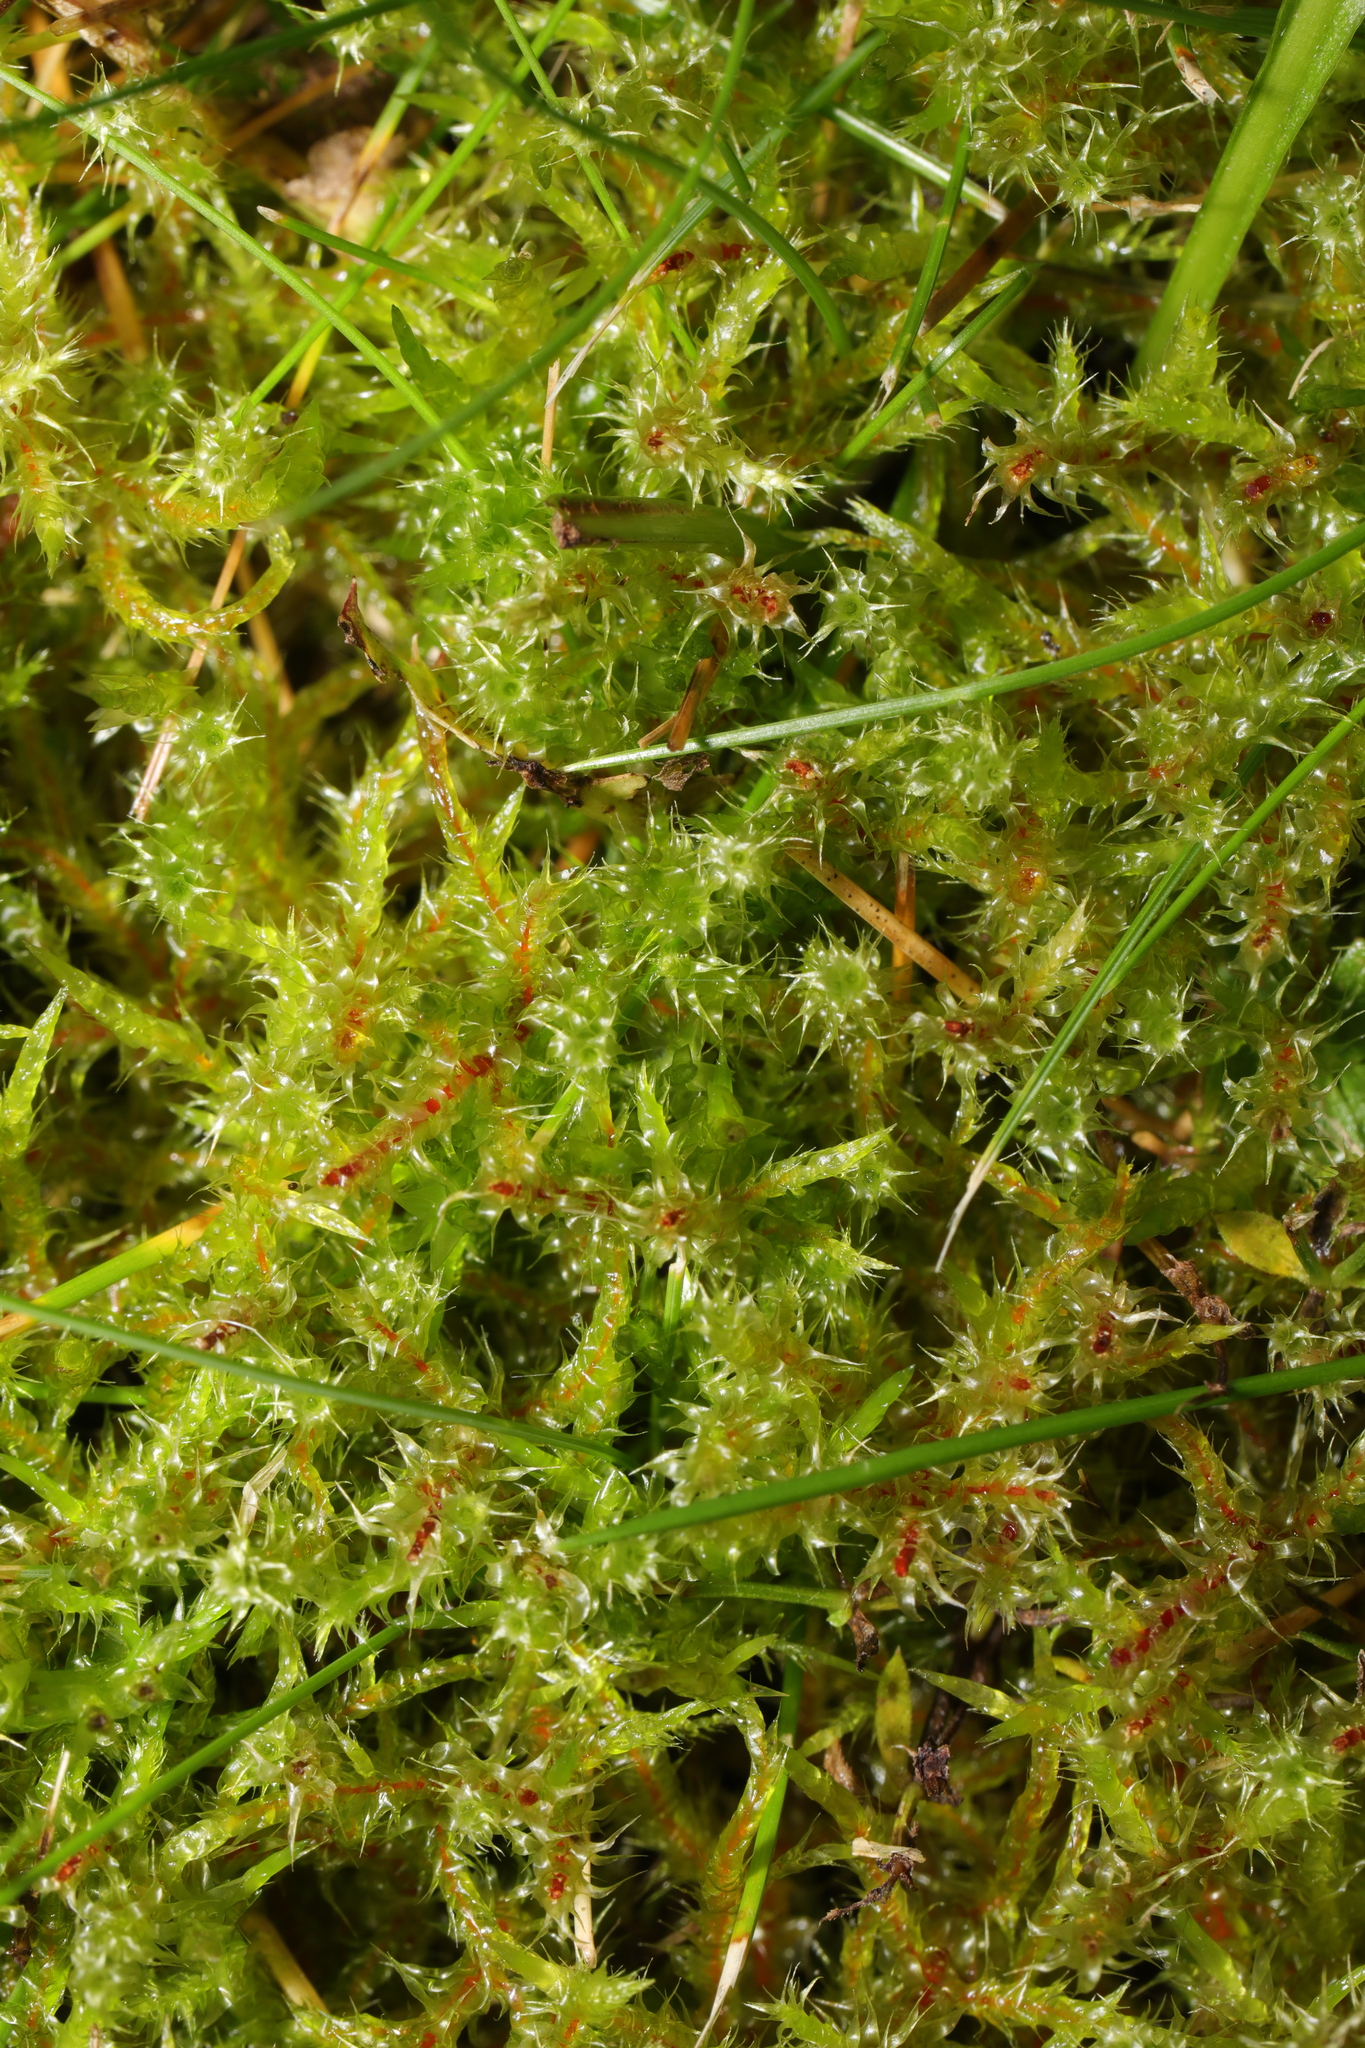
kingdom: Plantae
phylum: Bryophyta
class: Bryopsida
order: Hypnales
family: Hylocomiaceae
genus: Rhytidiadelphus
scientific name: Rhytidiadelphus squarrosus
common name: Springy turf-moss
